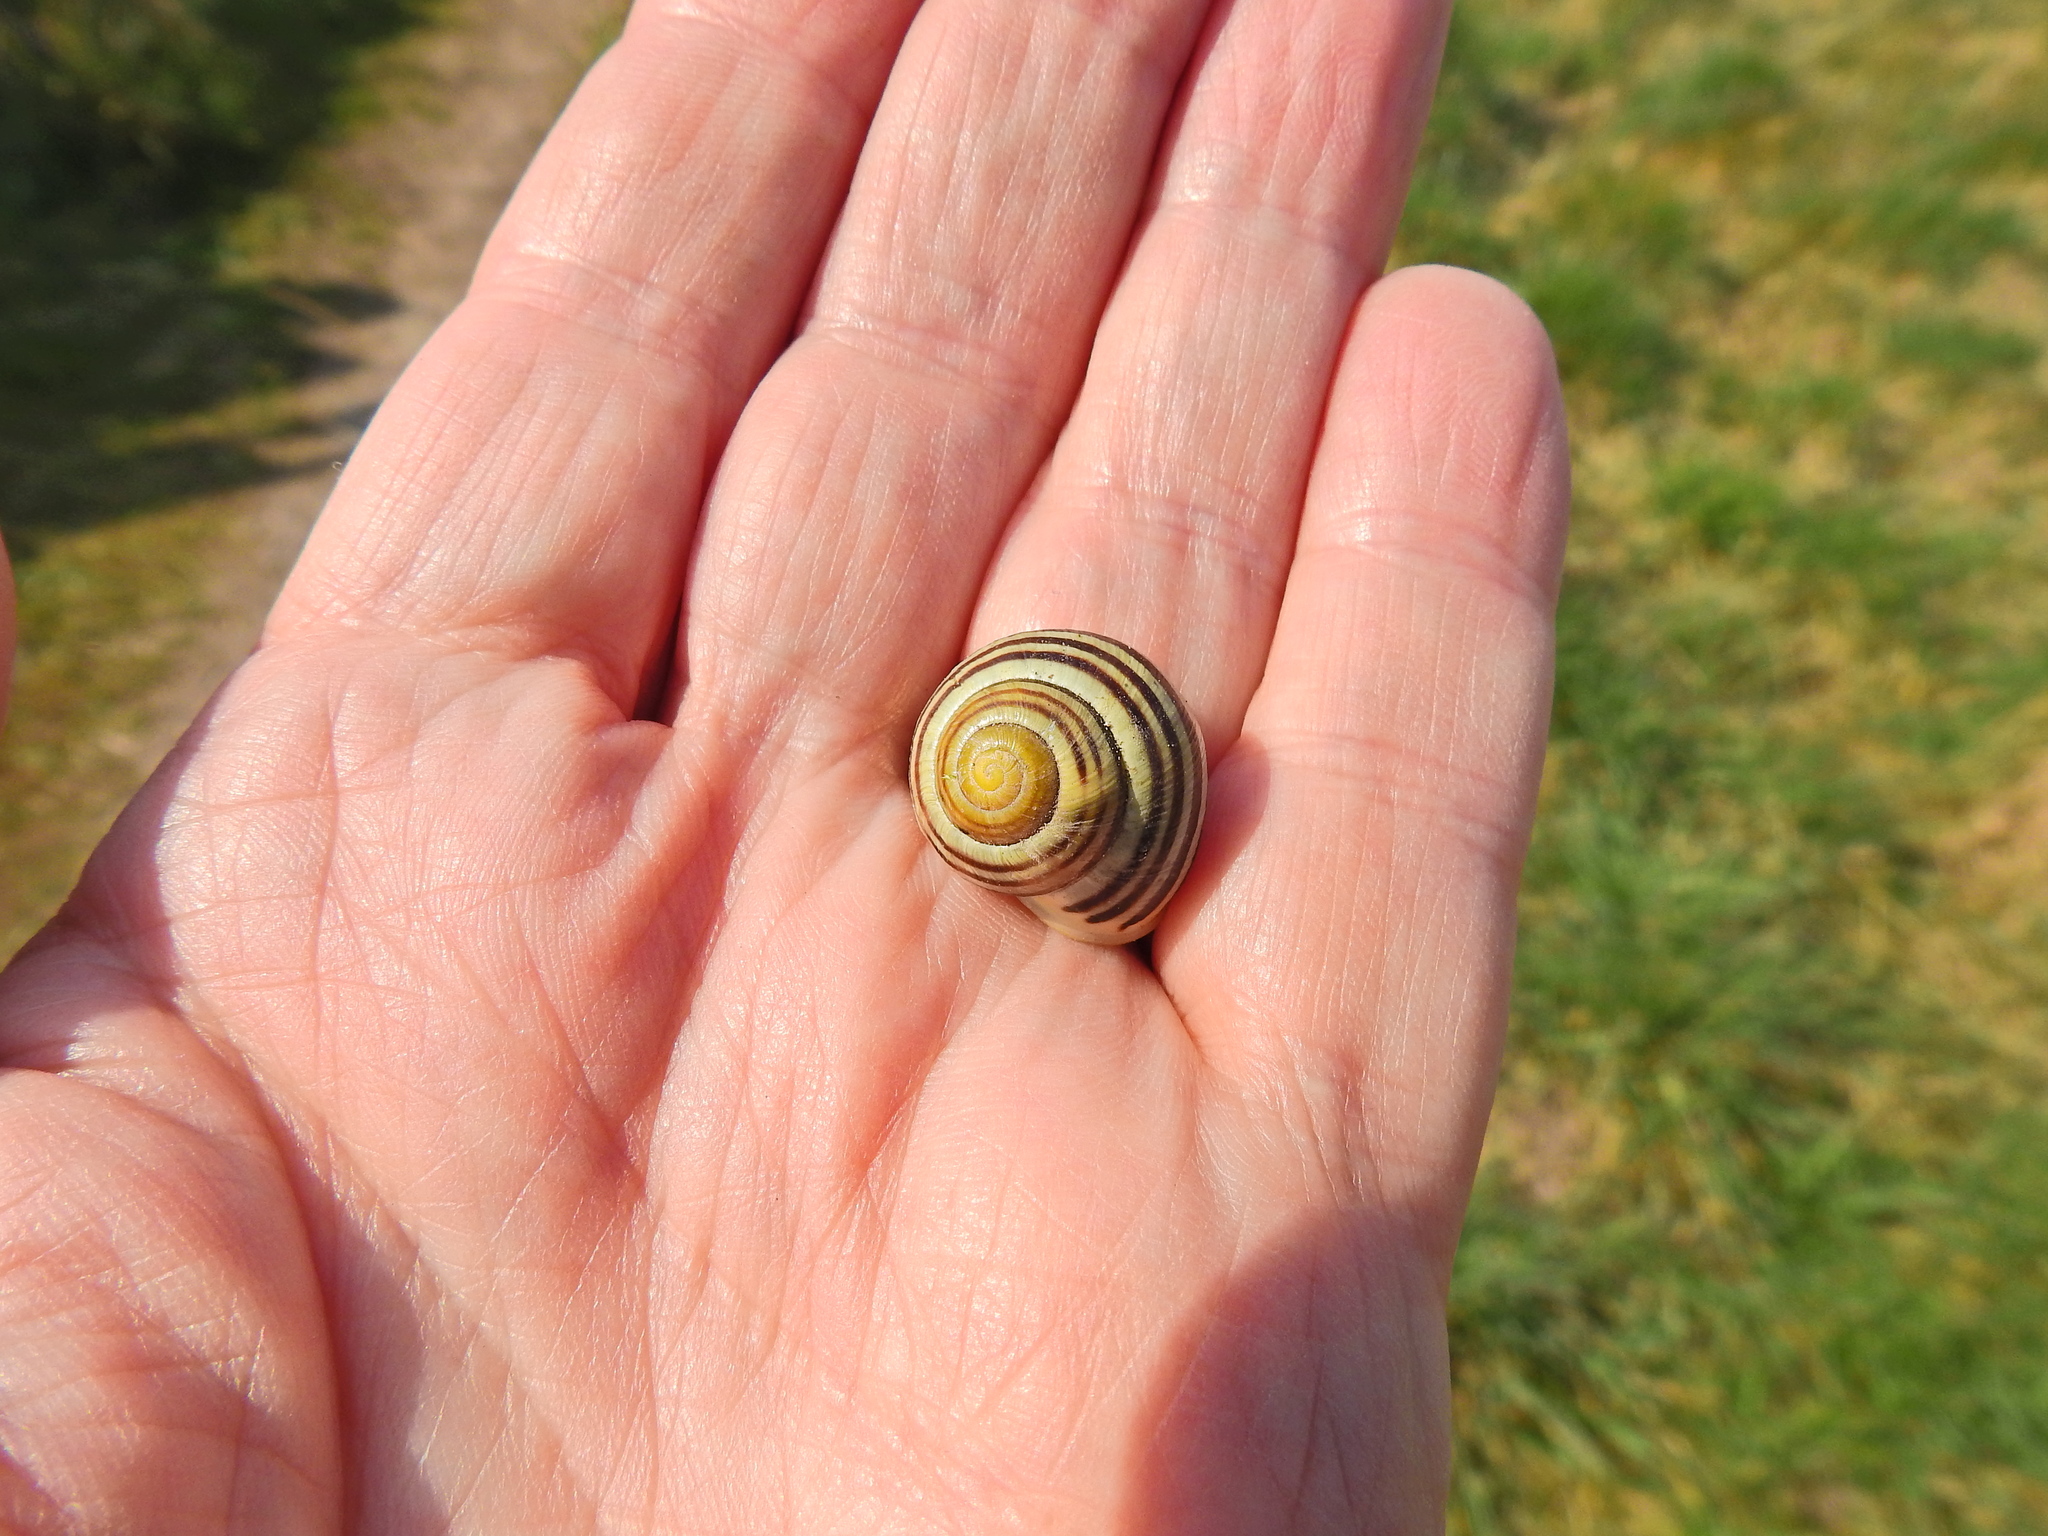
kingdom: Animalia
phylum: Mollusca
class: Gastropoda
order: Stylommatophora
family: Helicidae
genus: Cepaea
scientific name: Cepaea hortensis
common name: White-lip gardensnail
